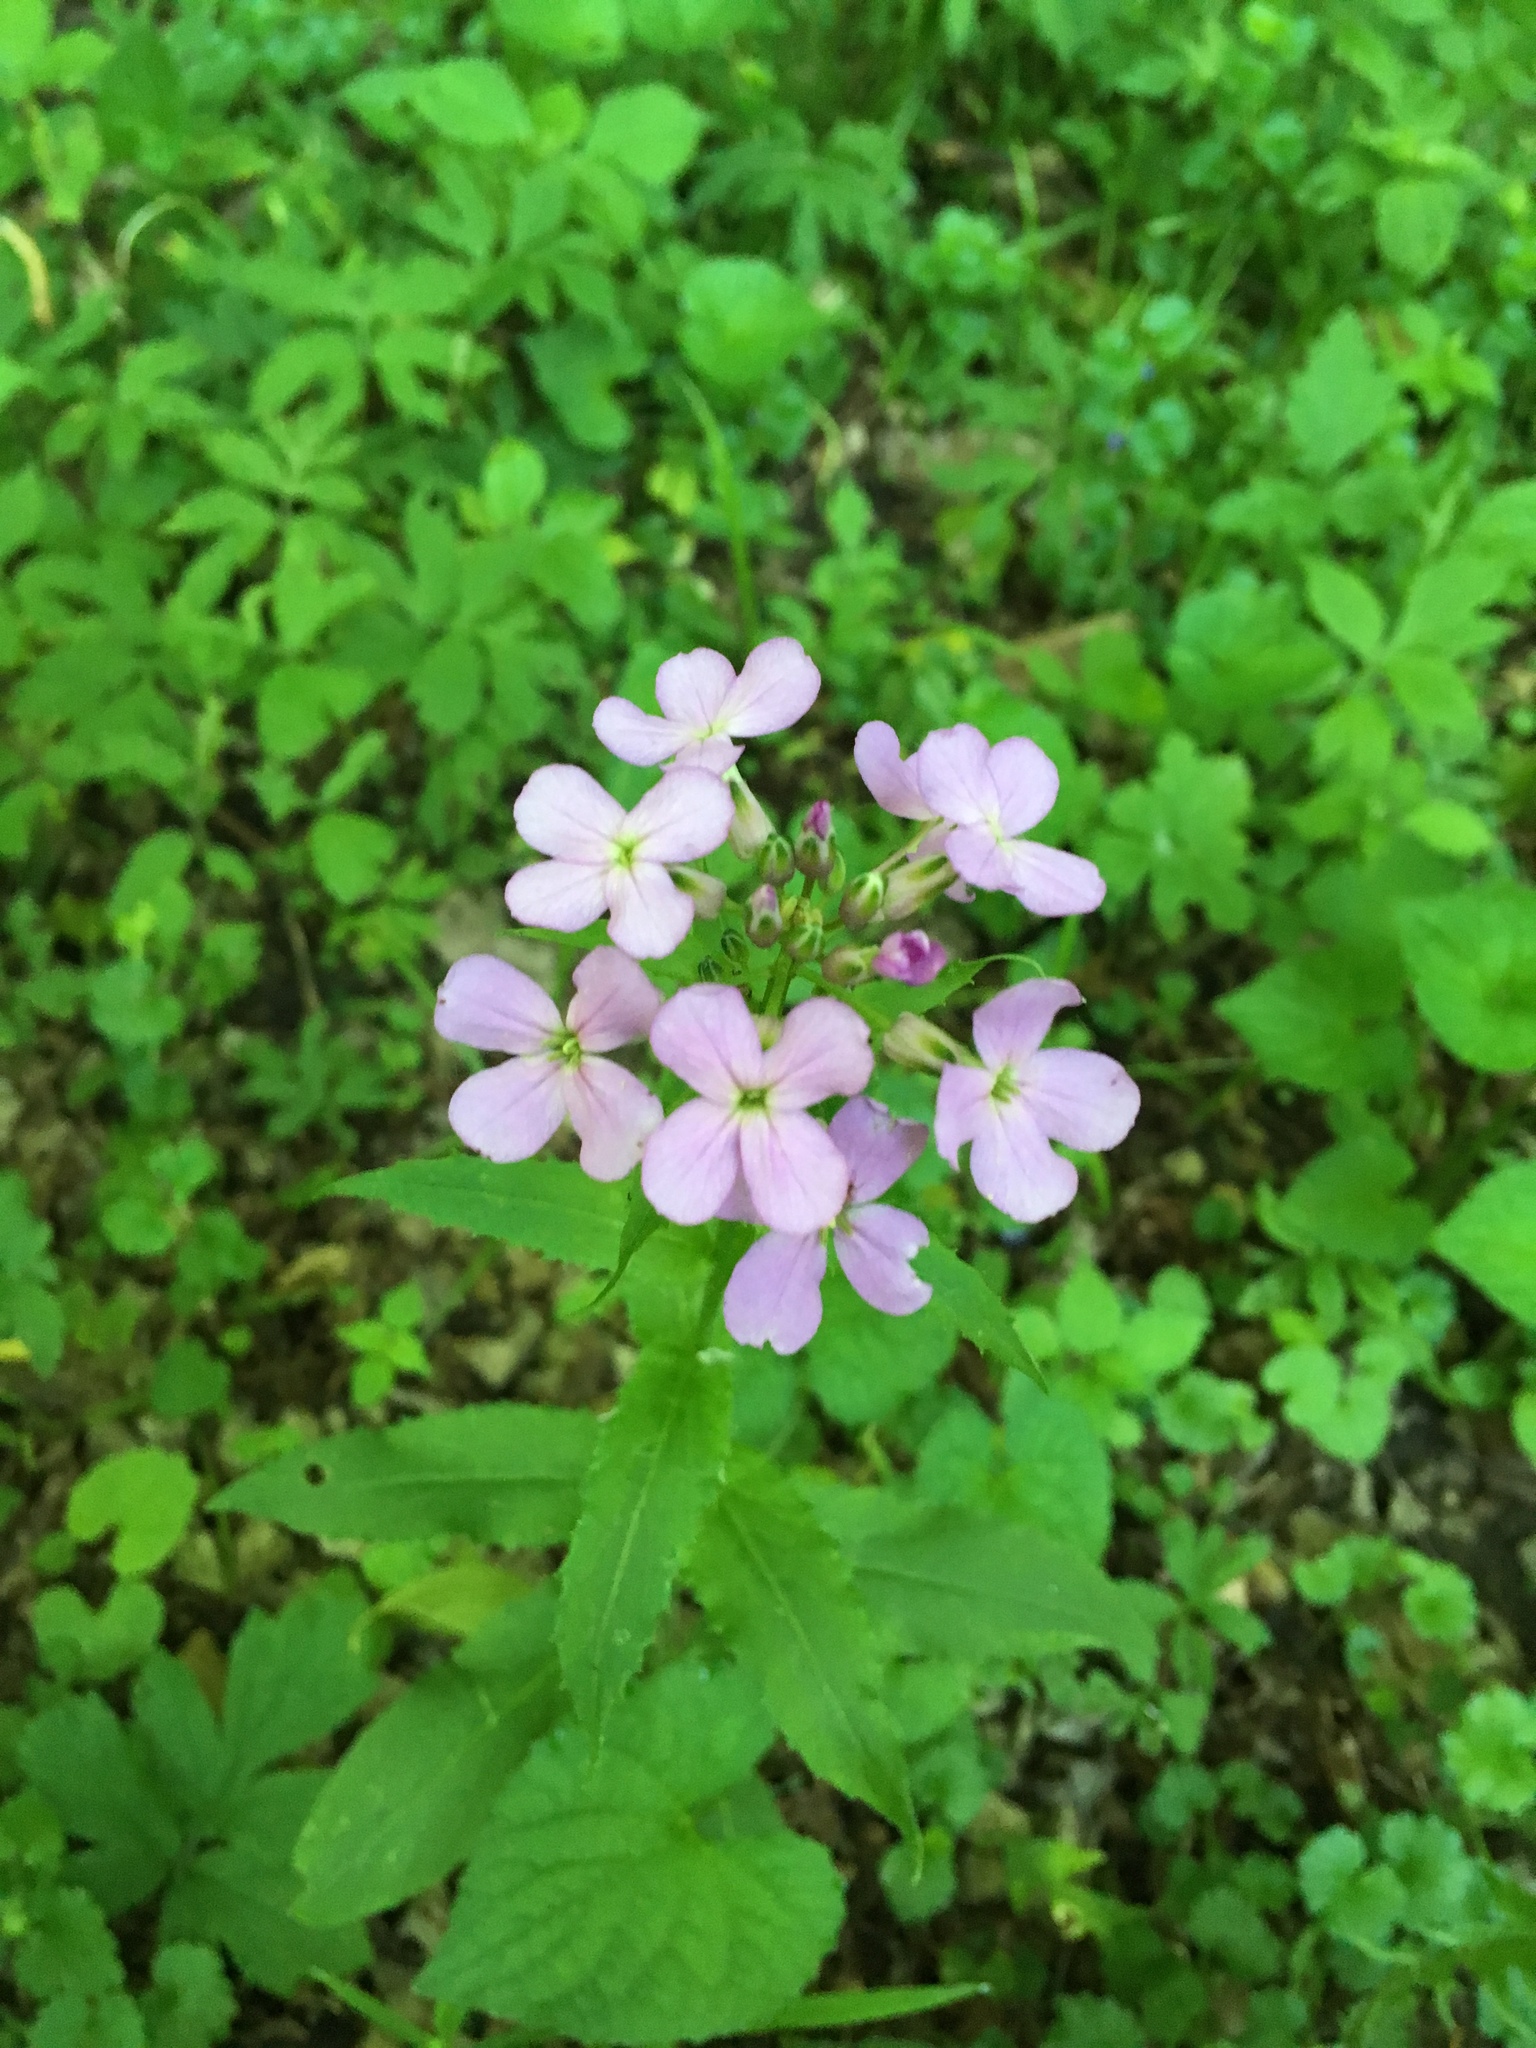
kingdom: Plantae
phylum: Tracheophyta
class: Magnoliopsida
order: Brassicales
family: Brassicaceae
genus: Hesperis
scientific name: Hesperis matronalis
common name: Dame's-violet
